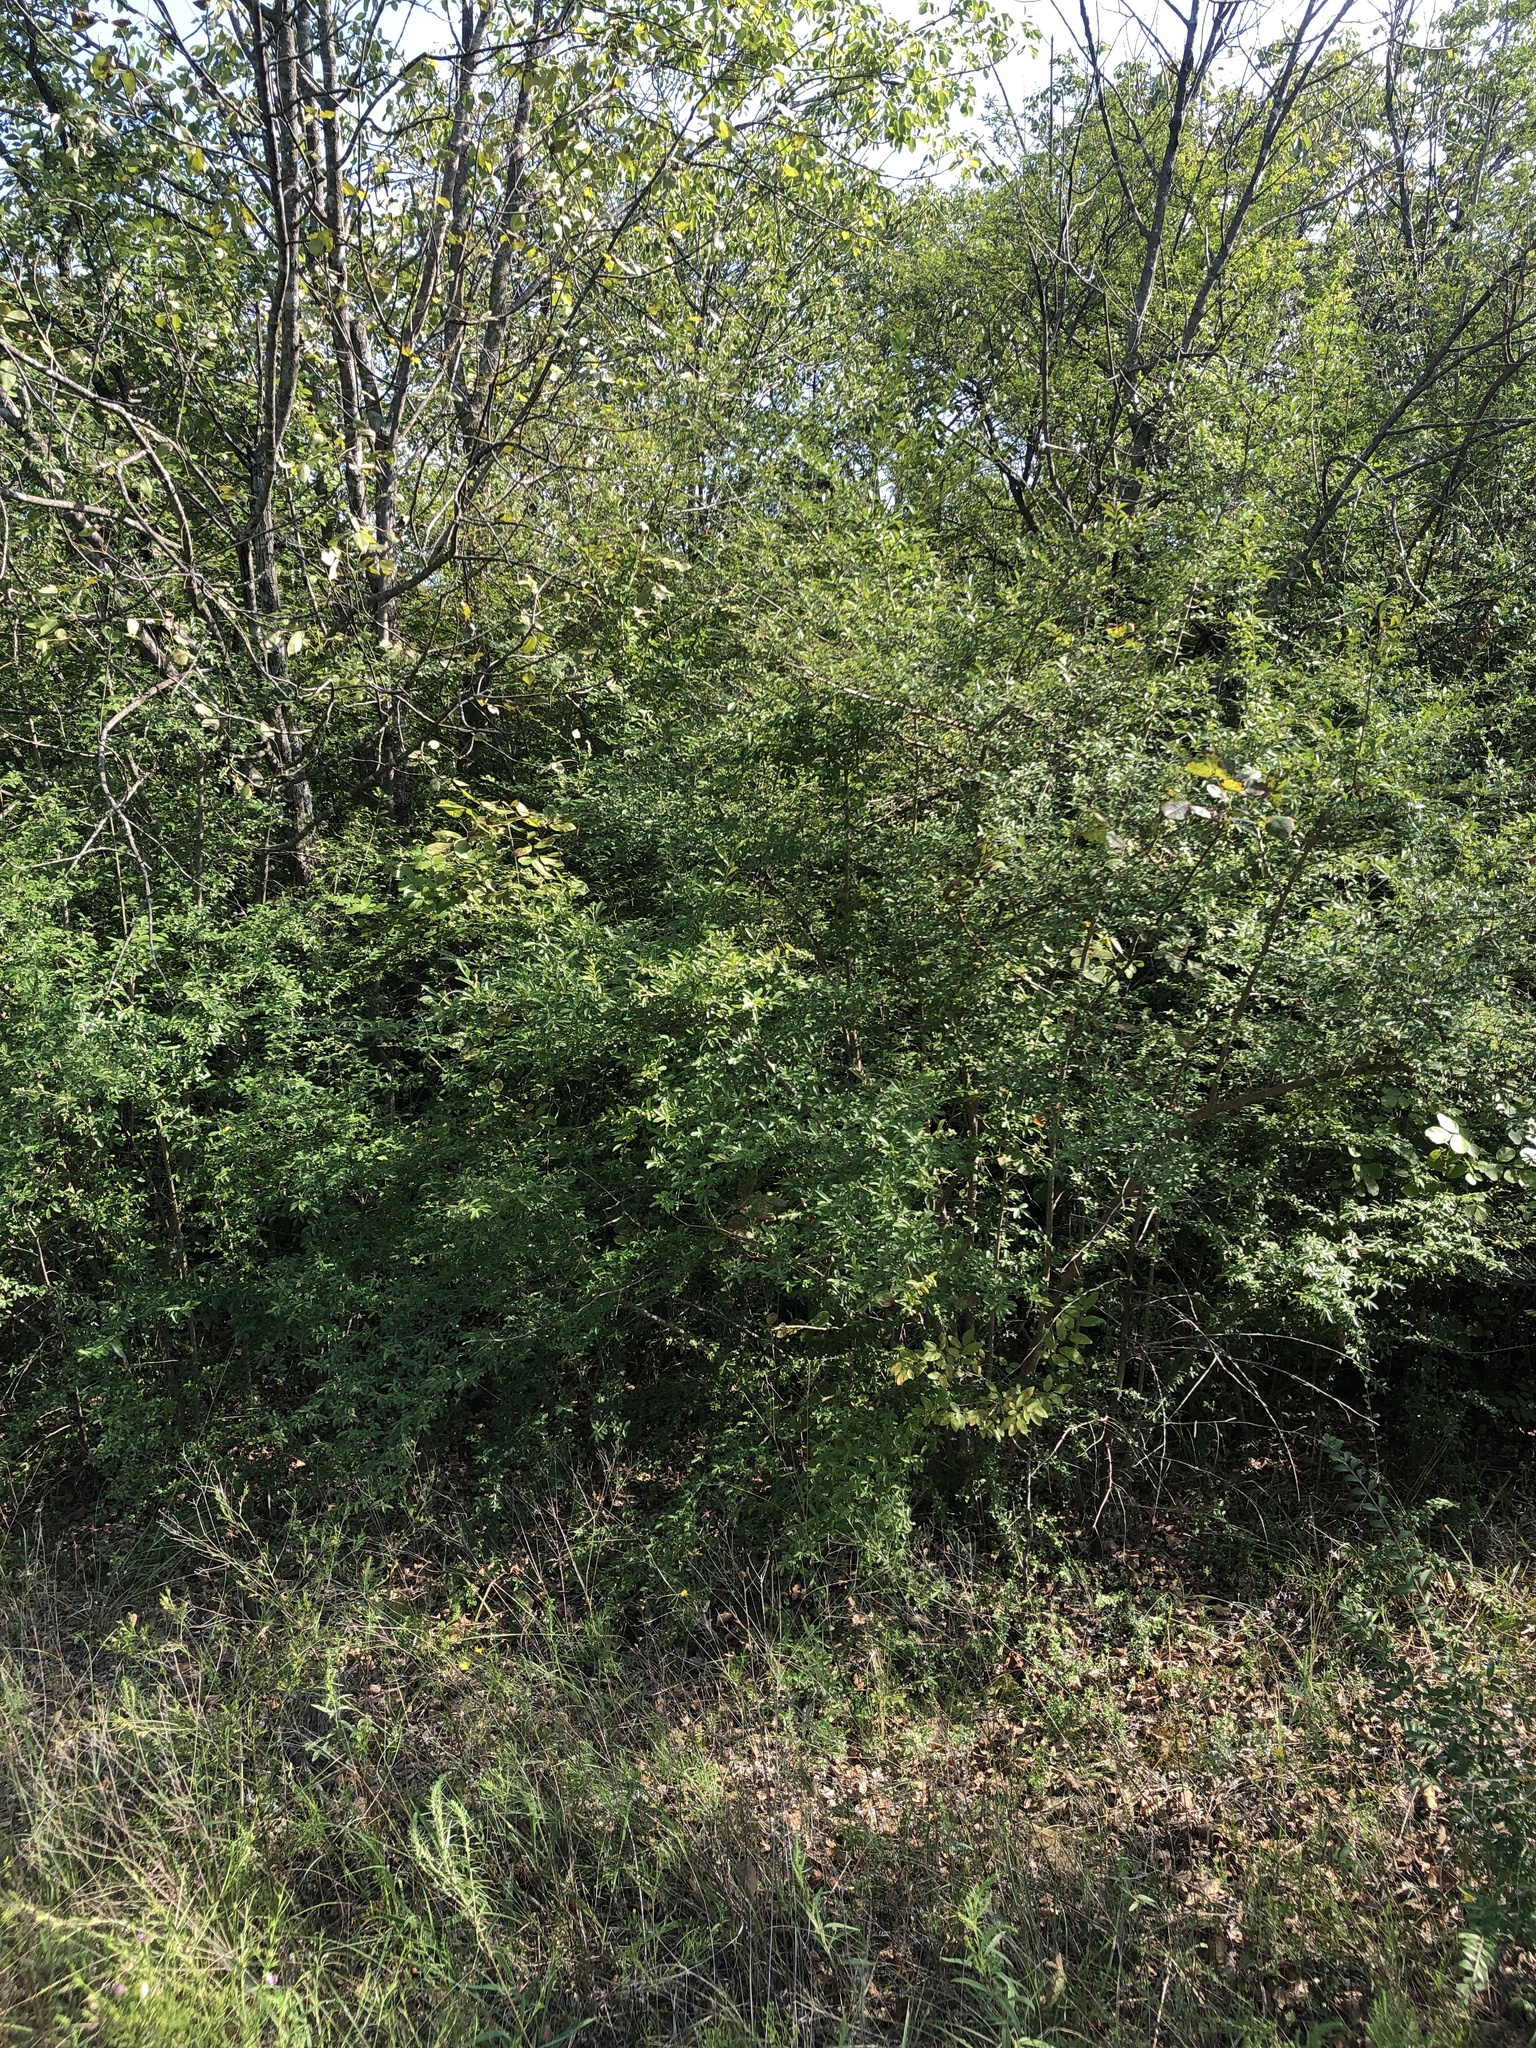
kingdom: Plantae
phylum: Tracheophyta
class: Magnoliopsida
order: Lamiales
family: Oleaceae
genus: Ligustrum
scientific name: Ligustrum quihoui
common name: Waxyleaf privet
